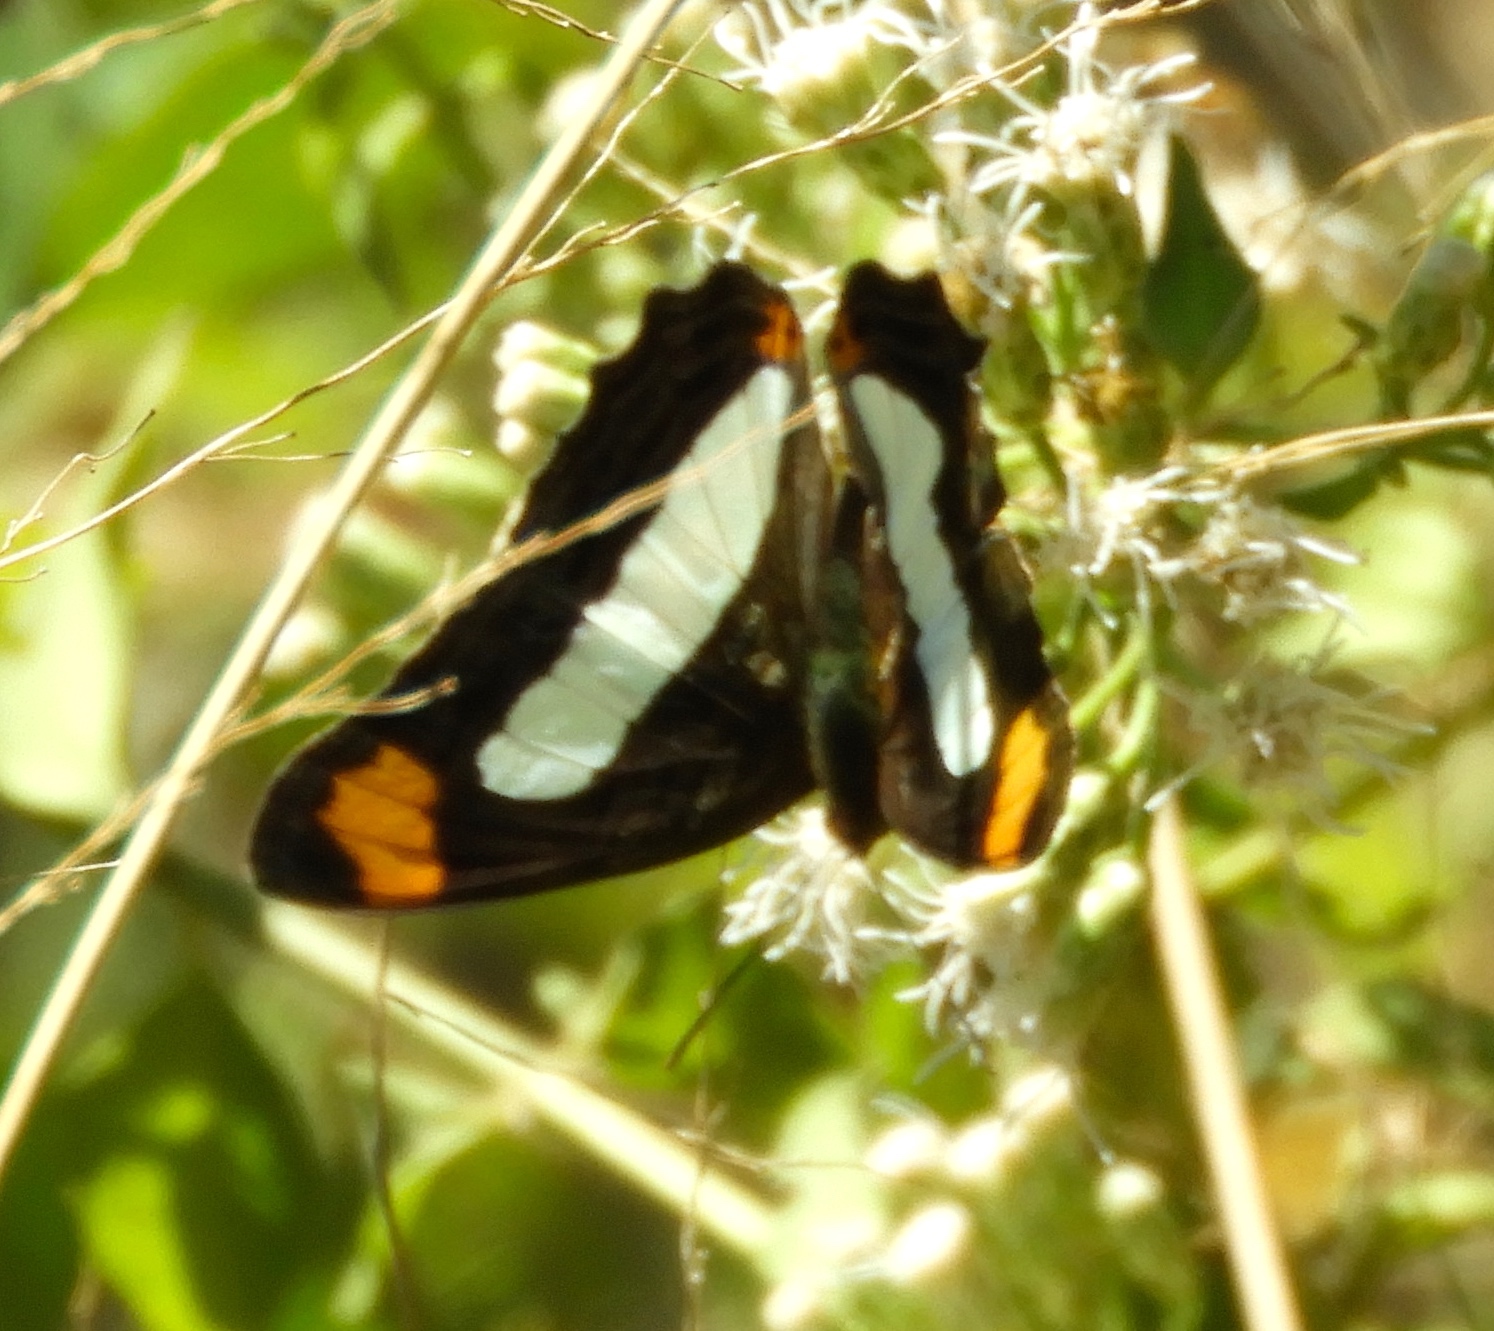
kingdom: Animalia
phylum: Arthropoda
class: Insecta
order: Lepidoptera
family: Nymphalidae
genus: Limenitis
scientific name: Limenitis
